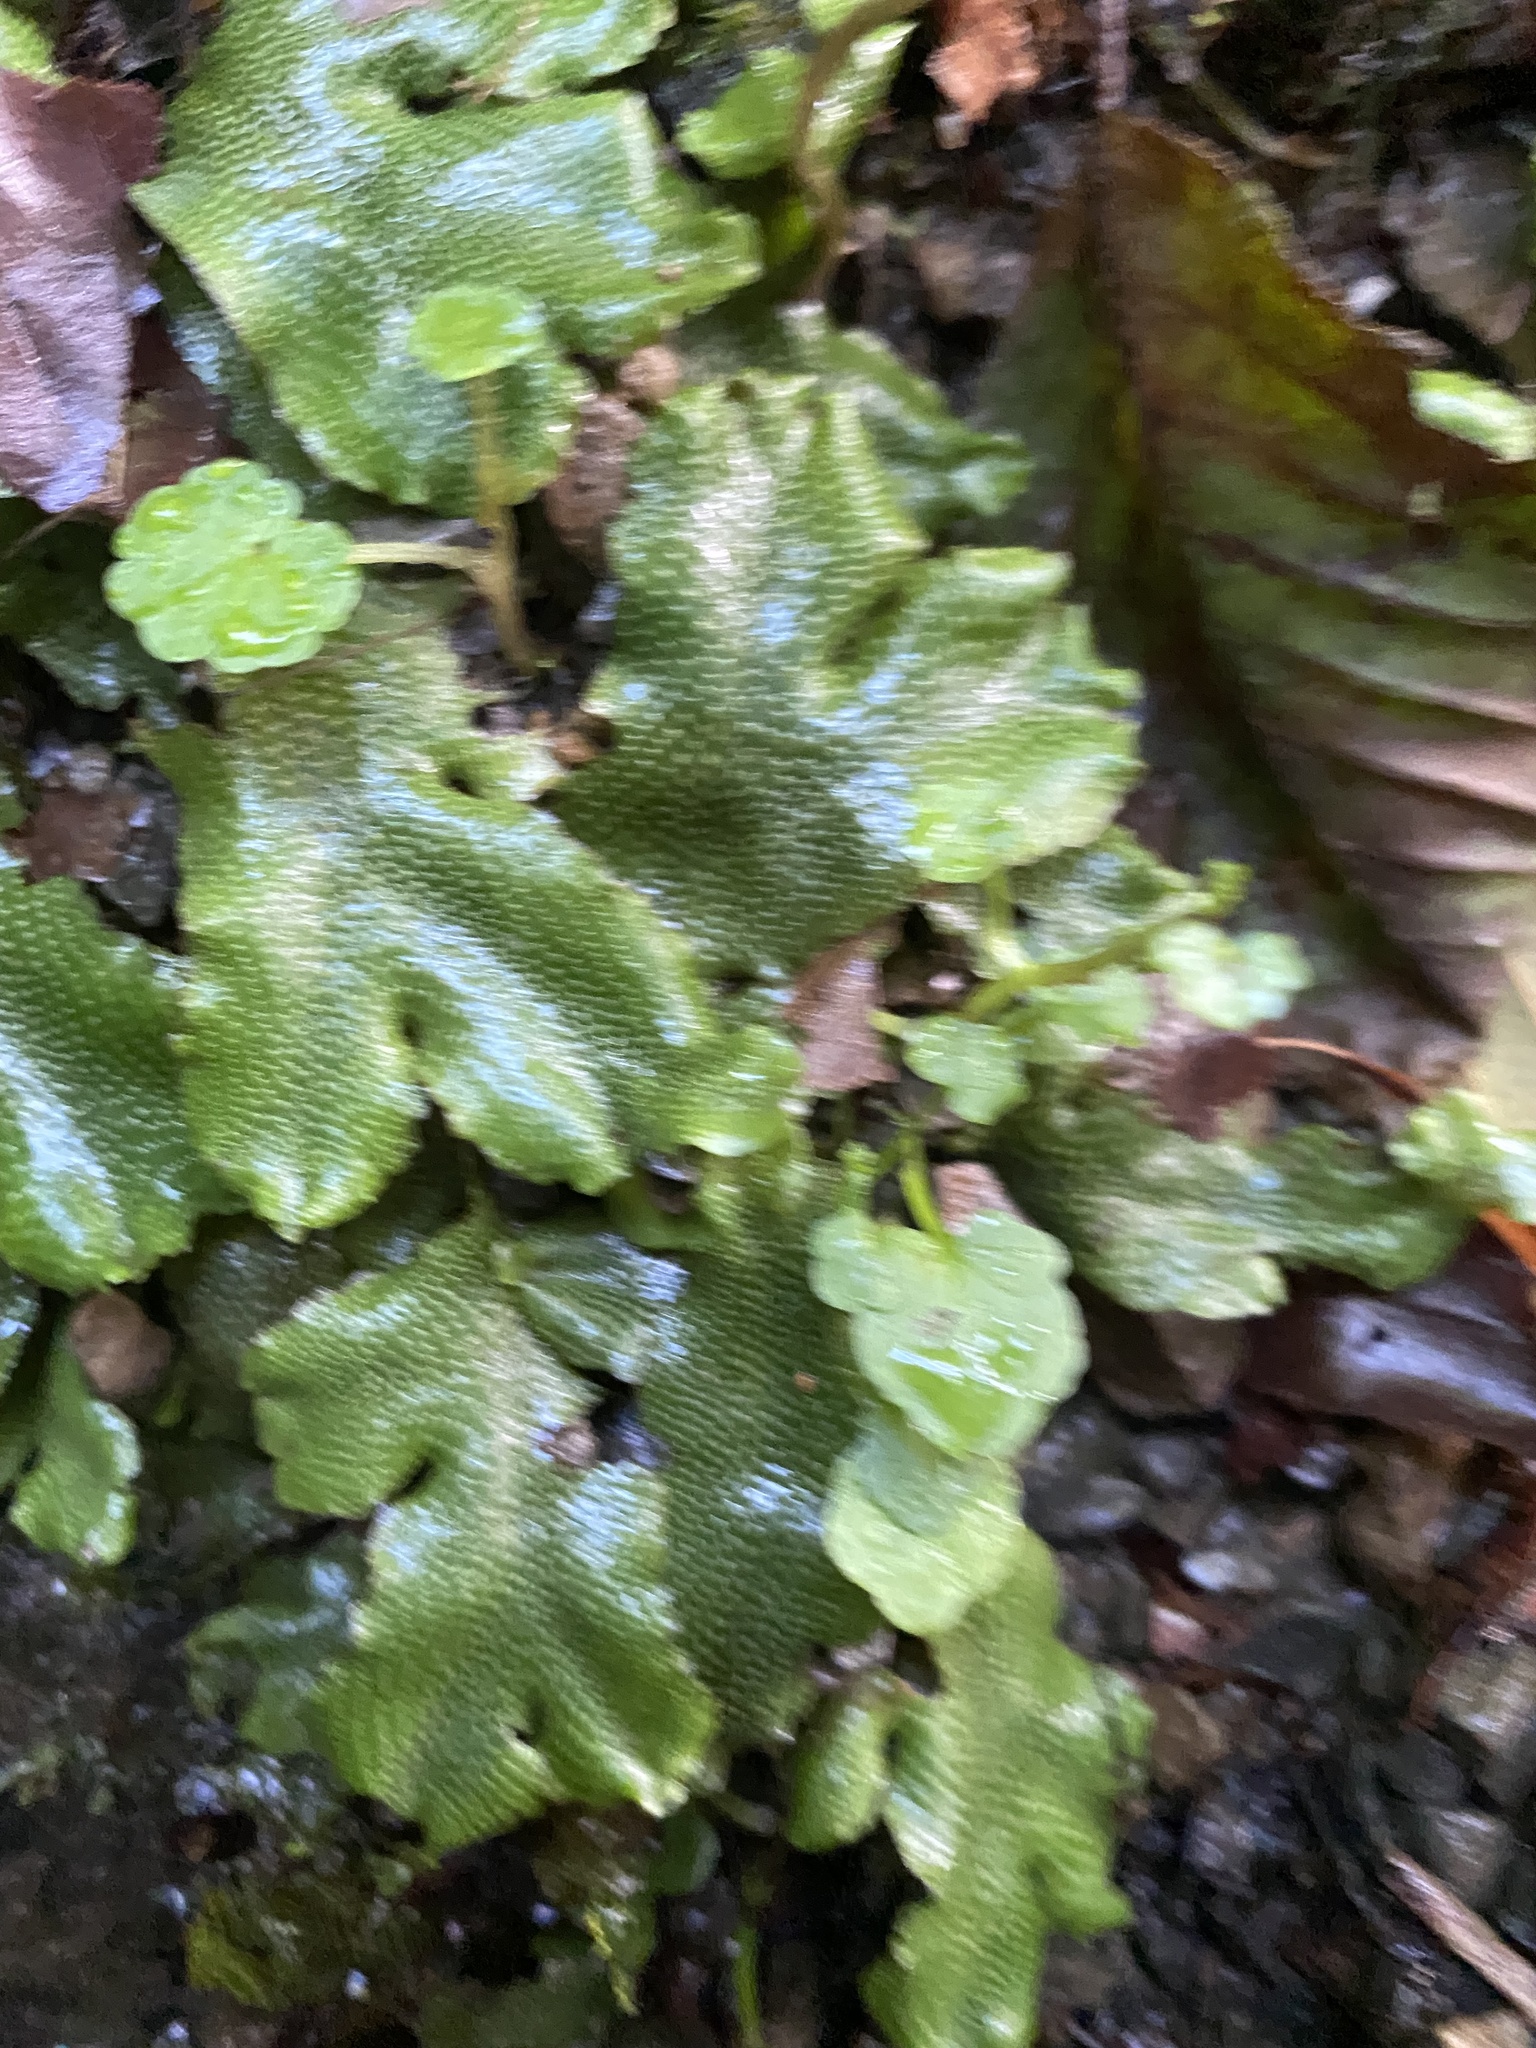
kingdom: Plantae
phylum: Marchantiophyta
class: Marchantiopsida
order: Marchantiales
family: Conocephalaceae
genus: Conocephalum
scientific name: Conocephalum conicum
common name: Great scented liverwort
